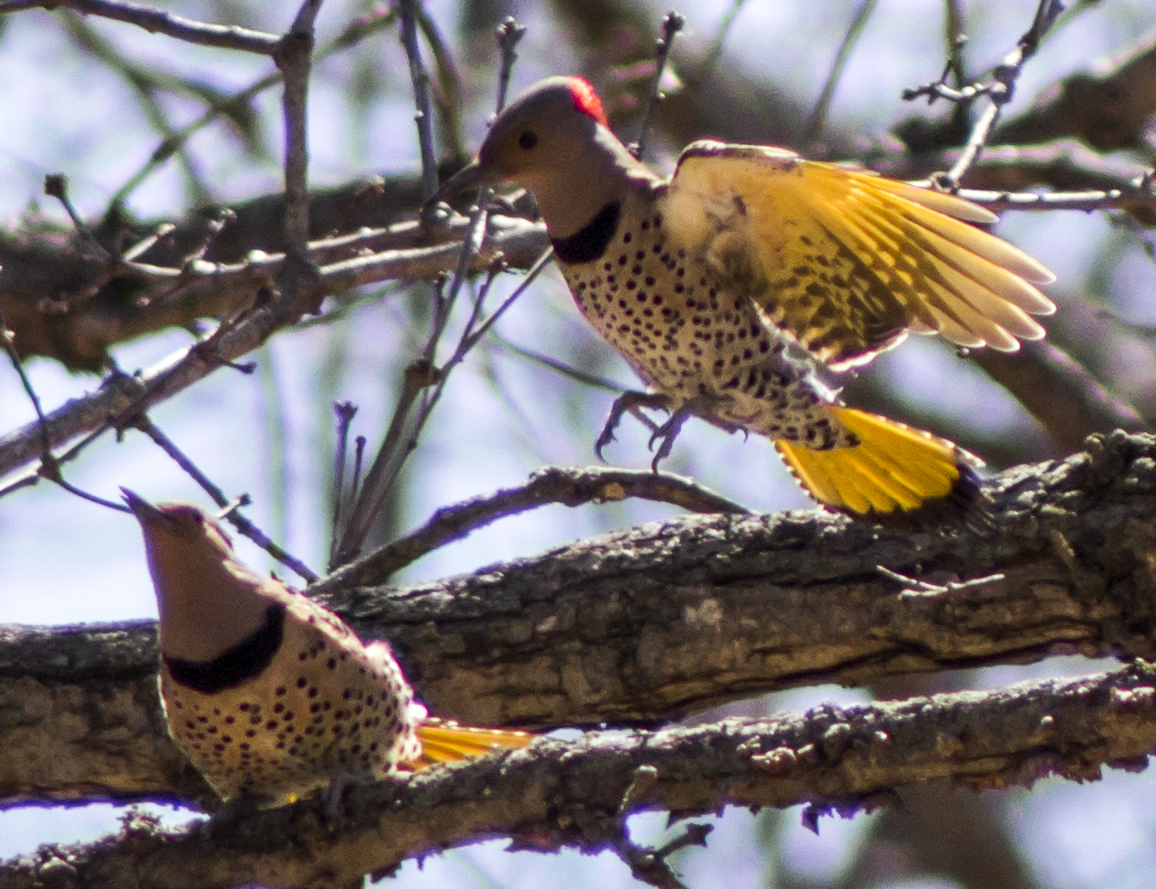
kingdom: Animalia
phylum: Chordata
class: Aves
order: Piciformes
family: Picidae
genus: Colaptes
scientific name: Colaptes auratus
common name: Northern flicker
